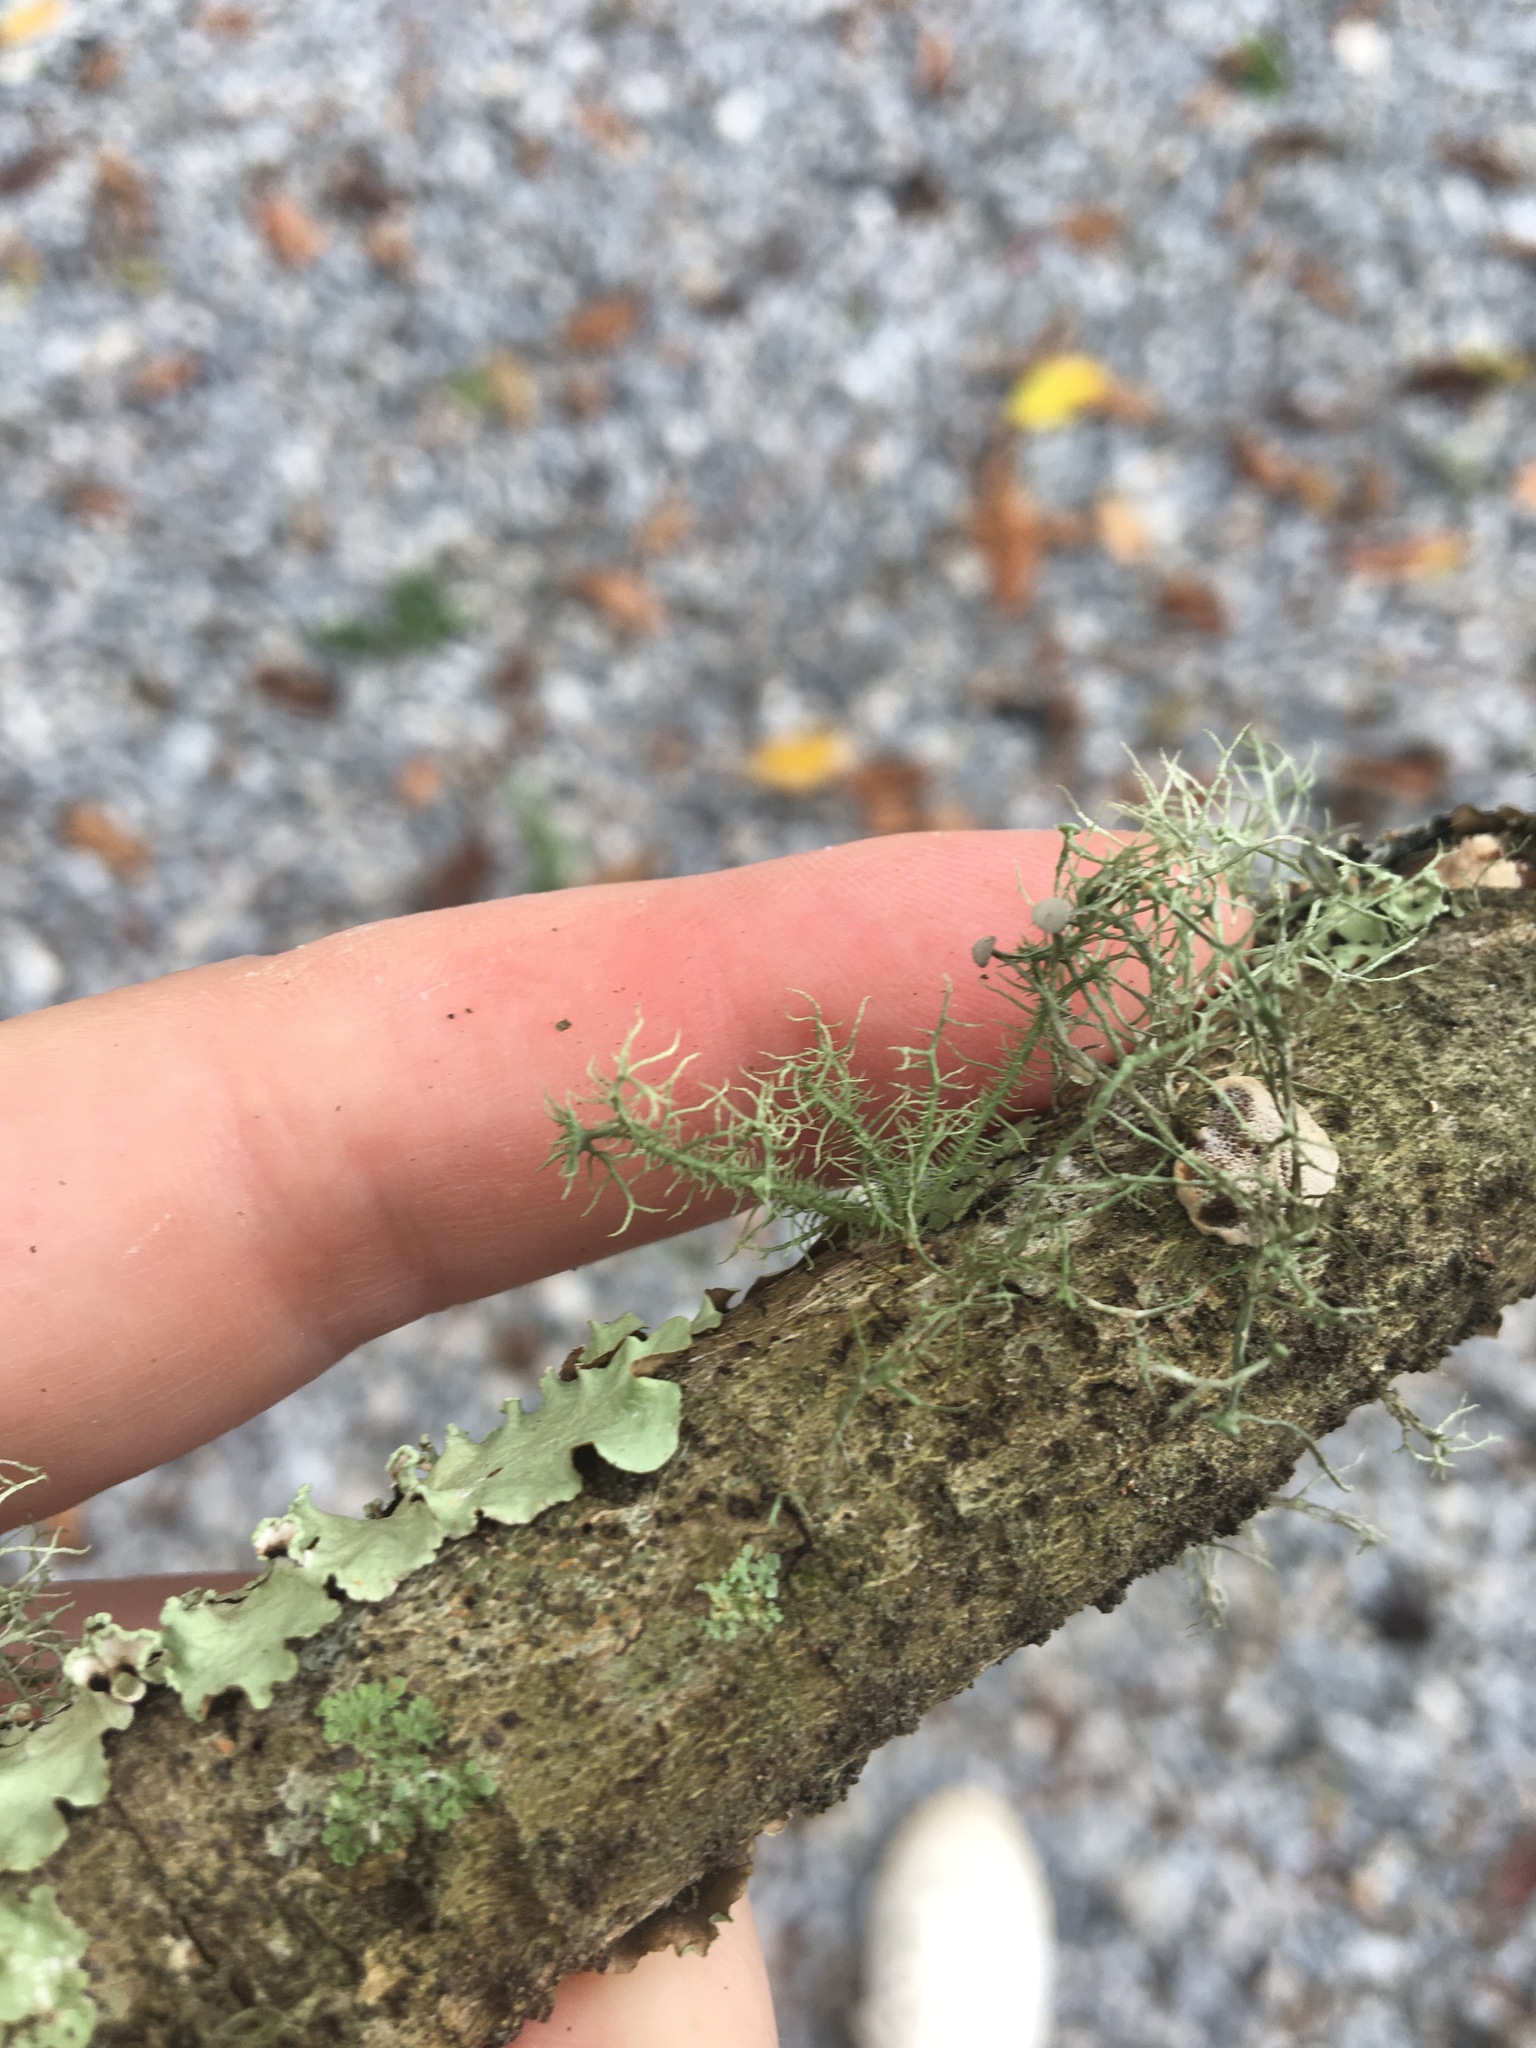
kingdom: Fungi
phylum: Ascomycota
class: Lecanoromycetes
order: Lecanorales
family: Parmeliaceae
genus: Usnea
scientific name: Usnea strigosa
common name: Bushy beard lichen
